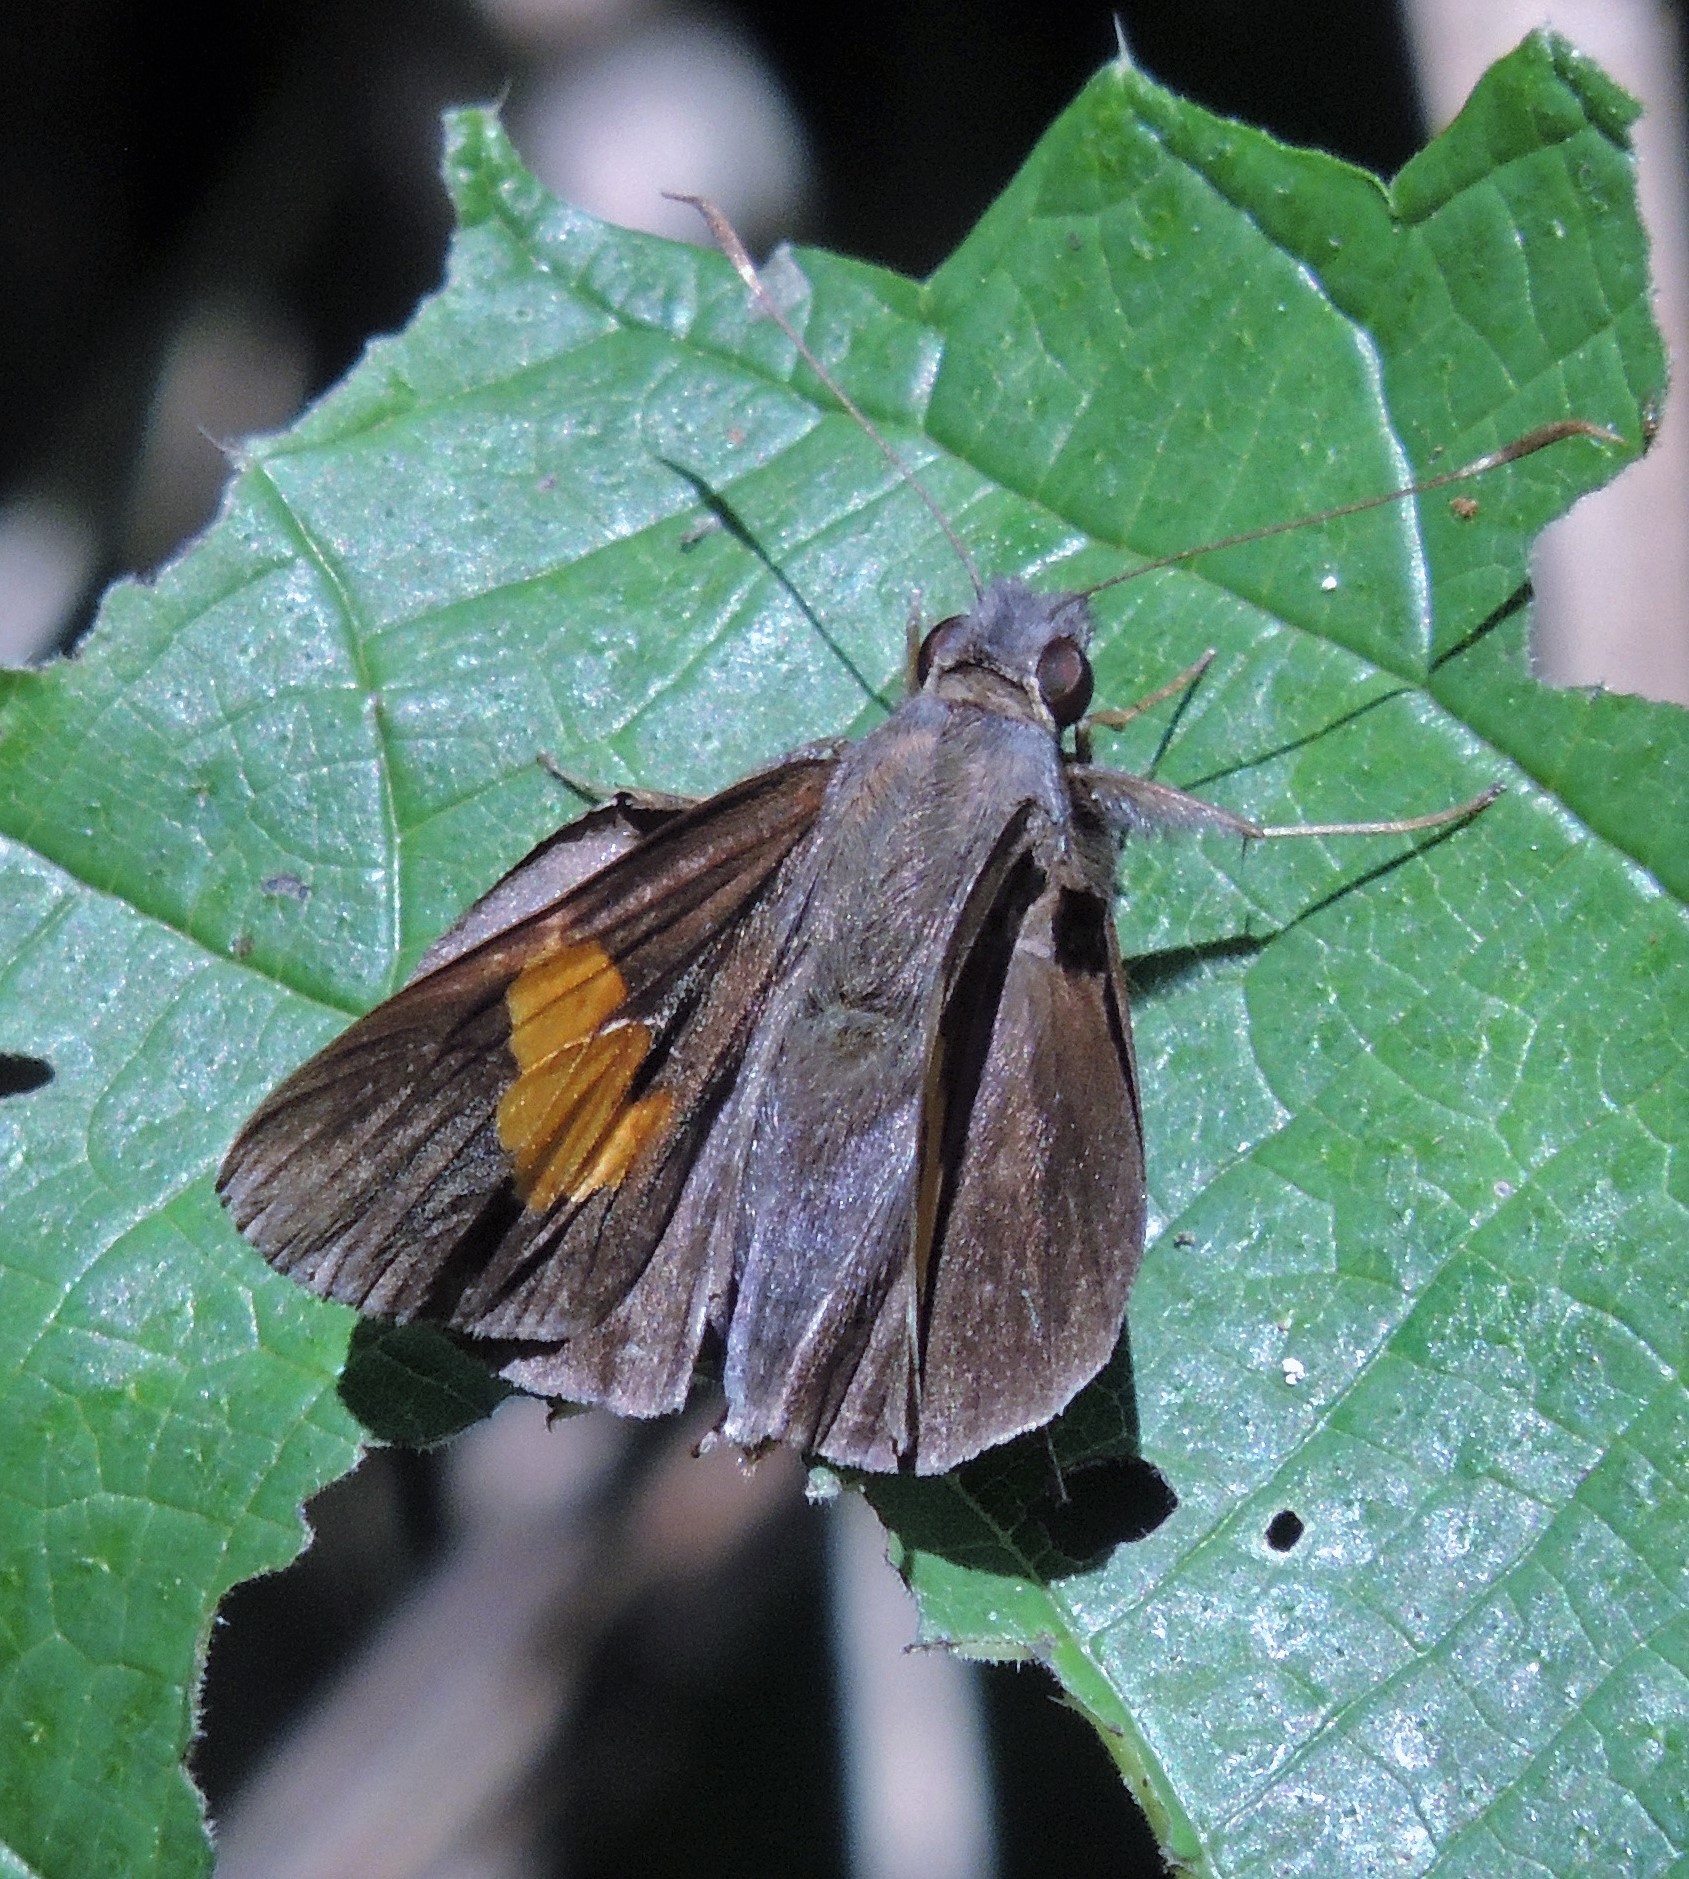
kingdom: Animalia
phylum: Arthropoda
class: Insecta
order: Lepidoptera
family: Hesperiidae
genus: Lychnuchoides
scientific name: Lychnuchoides ozias
